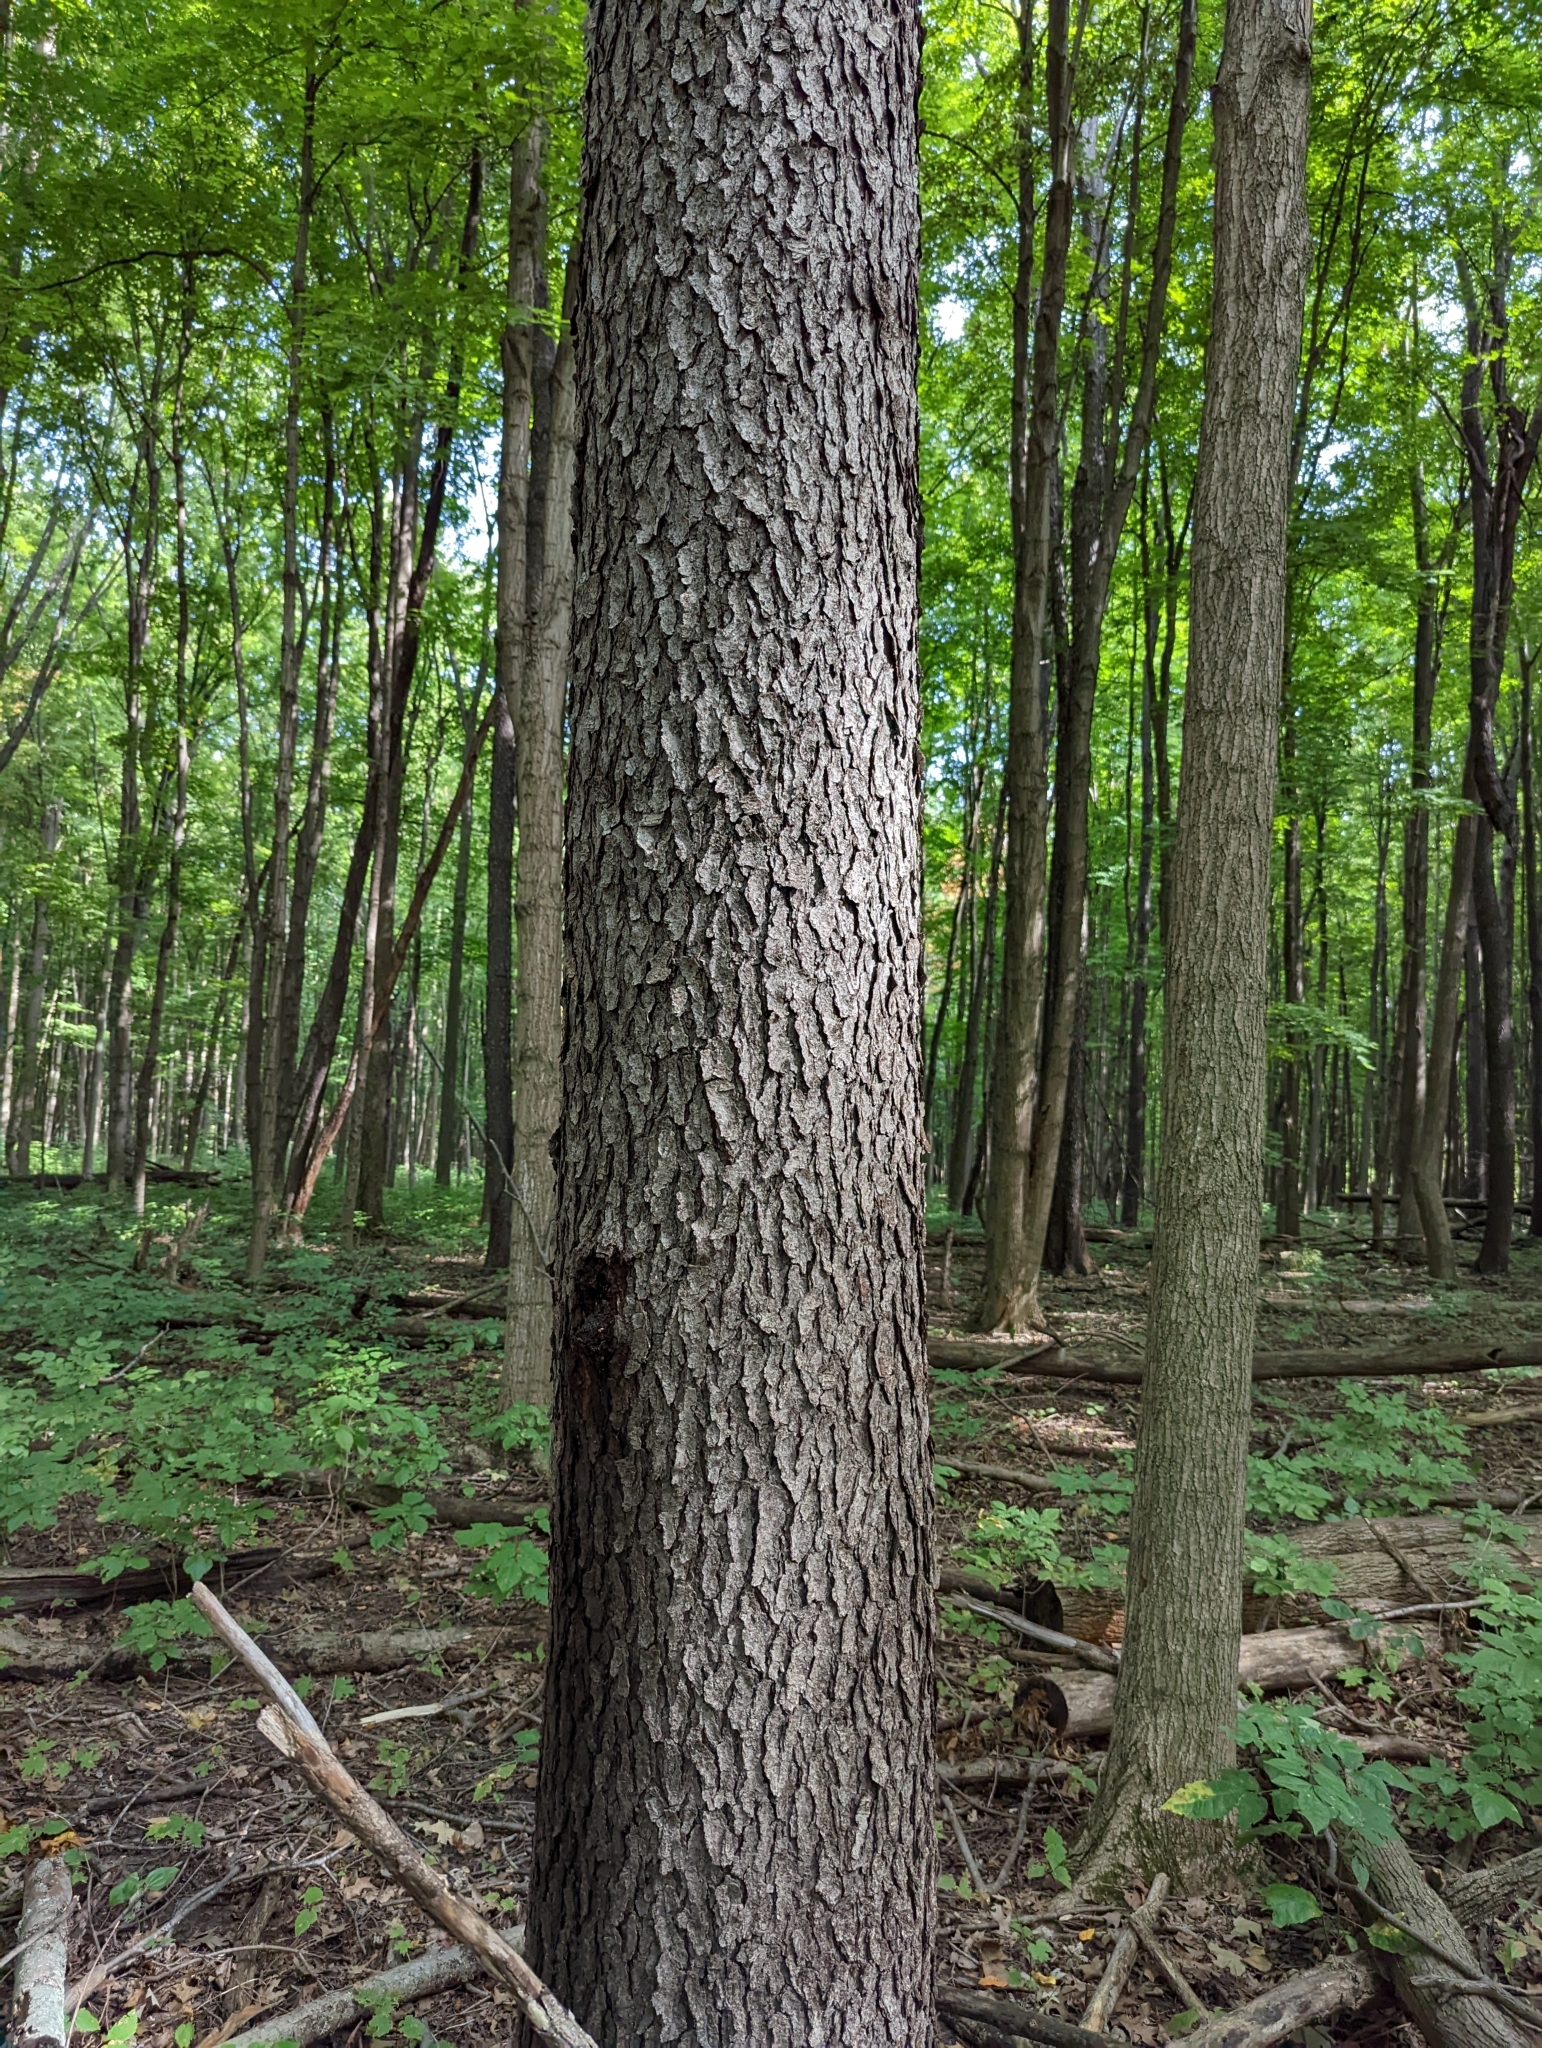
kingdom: Plantae
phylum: Tracheophyta
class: Magnoliopsida
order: Rosales
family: Rosaceae
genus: Prunus
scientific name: Prunus serotina
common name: Black cherry
